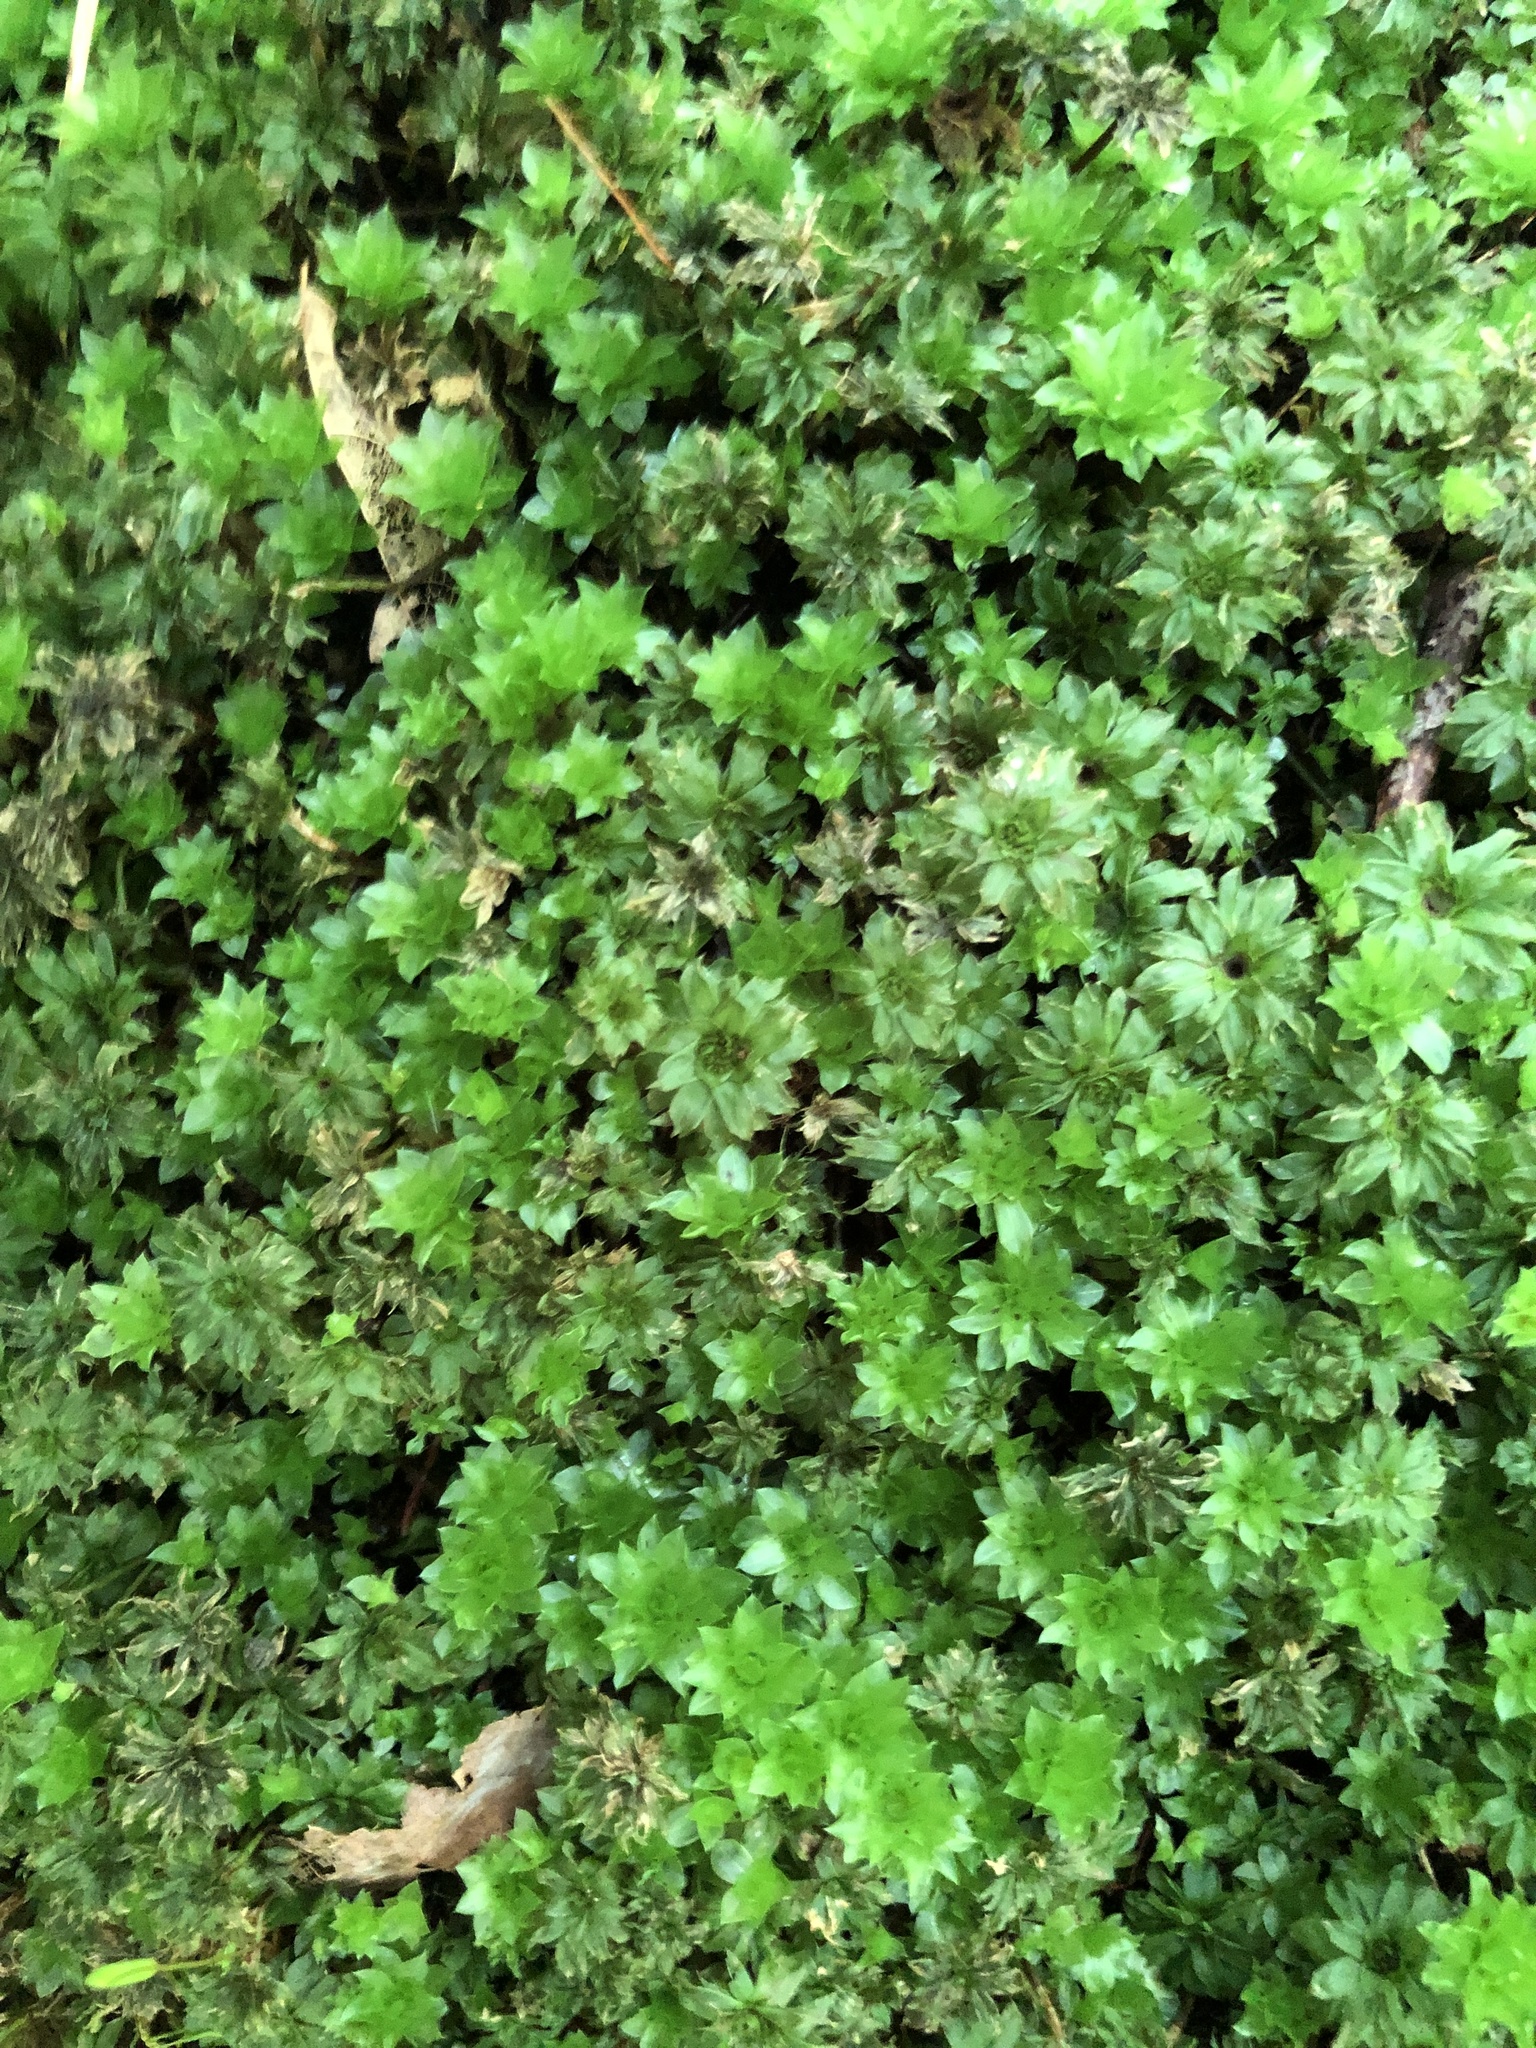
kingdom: Plantae
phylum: Bryophyta
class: Bryopsida
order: Bryales
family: Bryaceae
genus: Rhodobryum
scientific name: Rhodobryum ontariense
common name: Ontario rhodobryum moss
